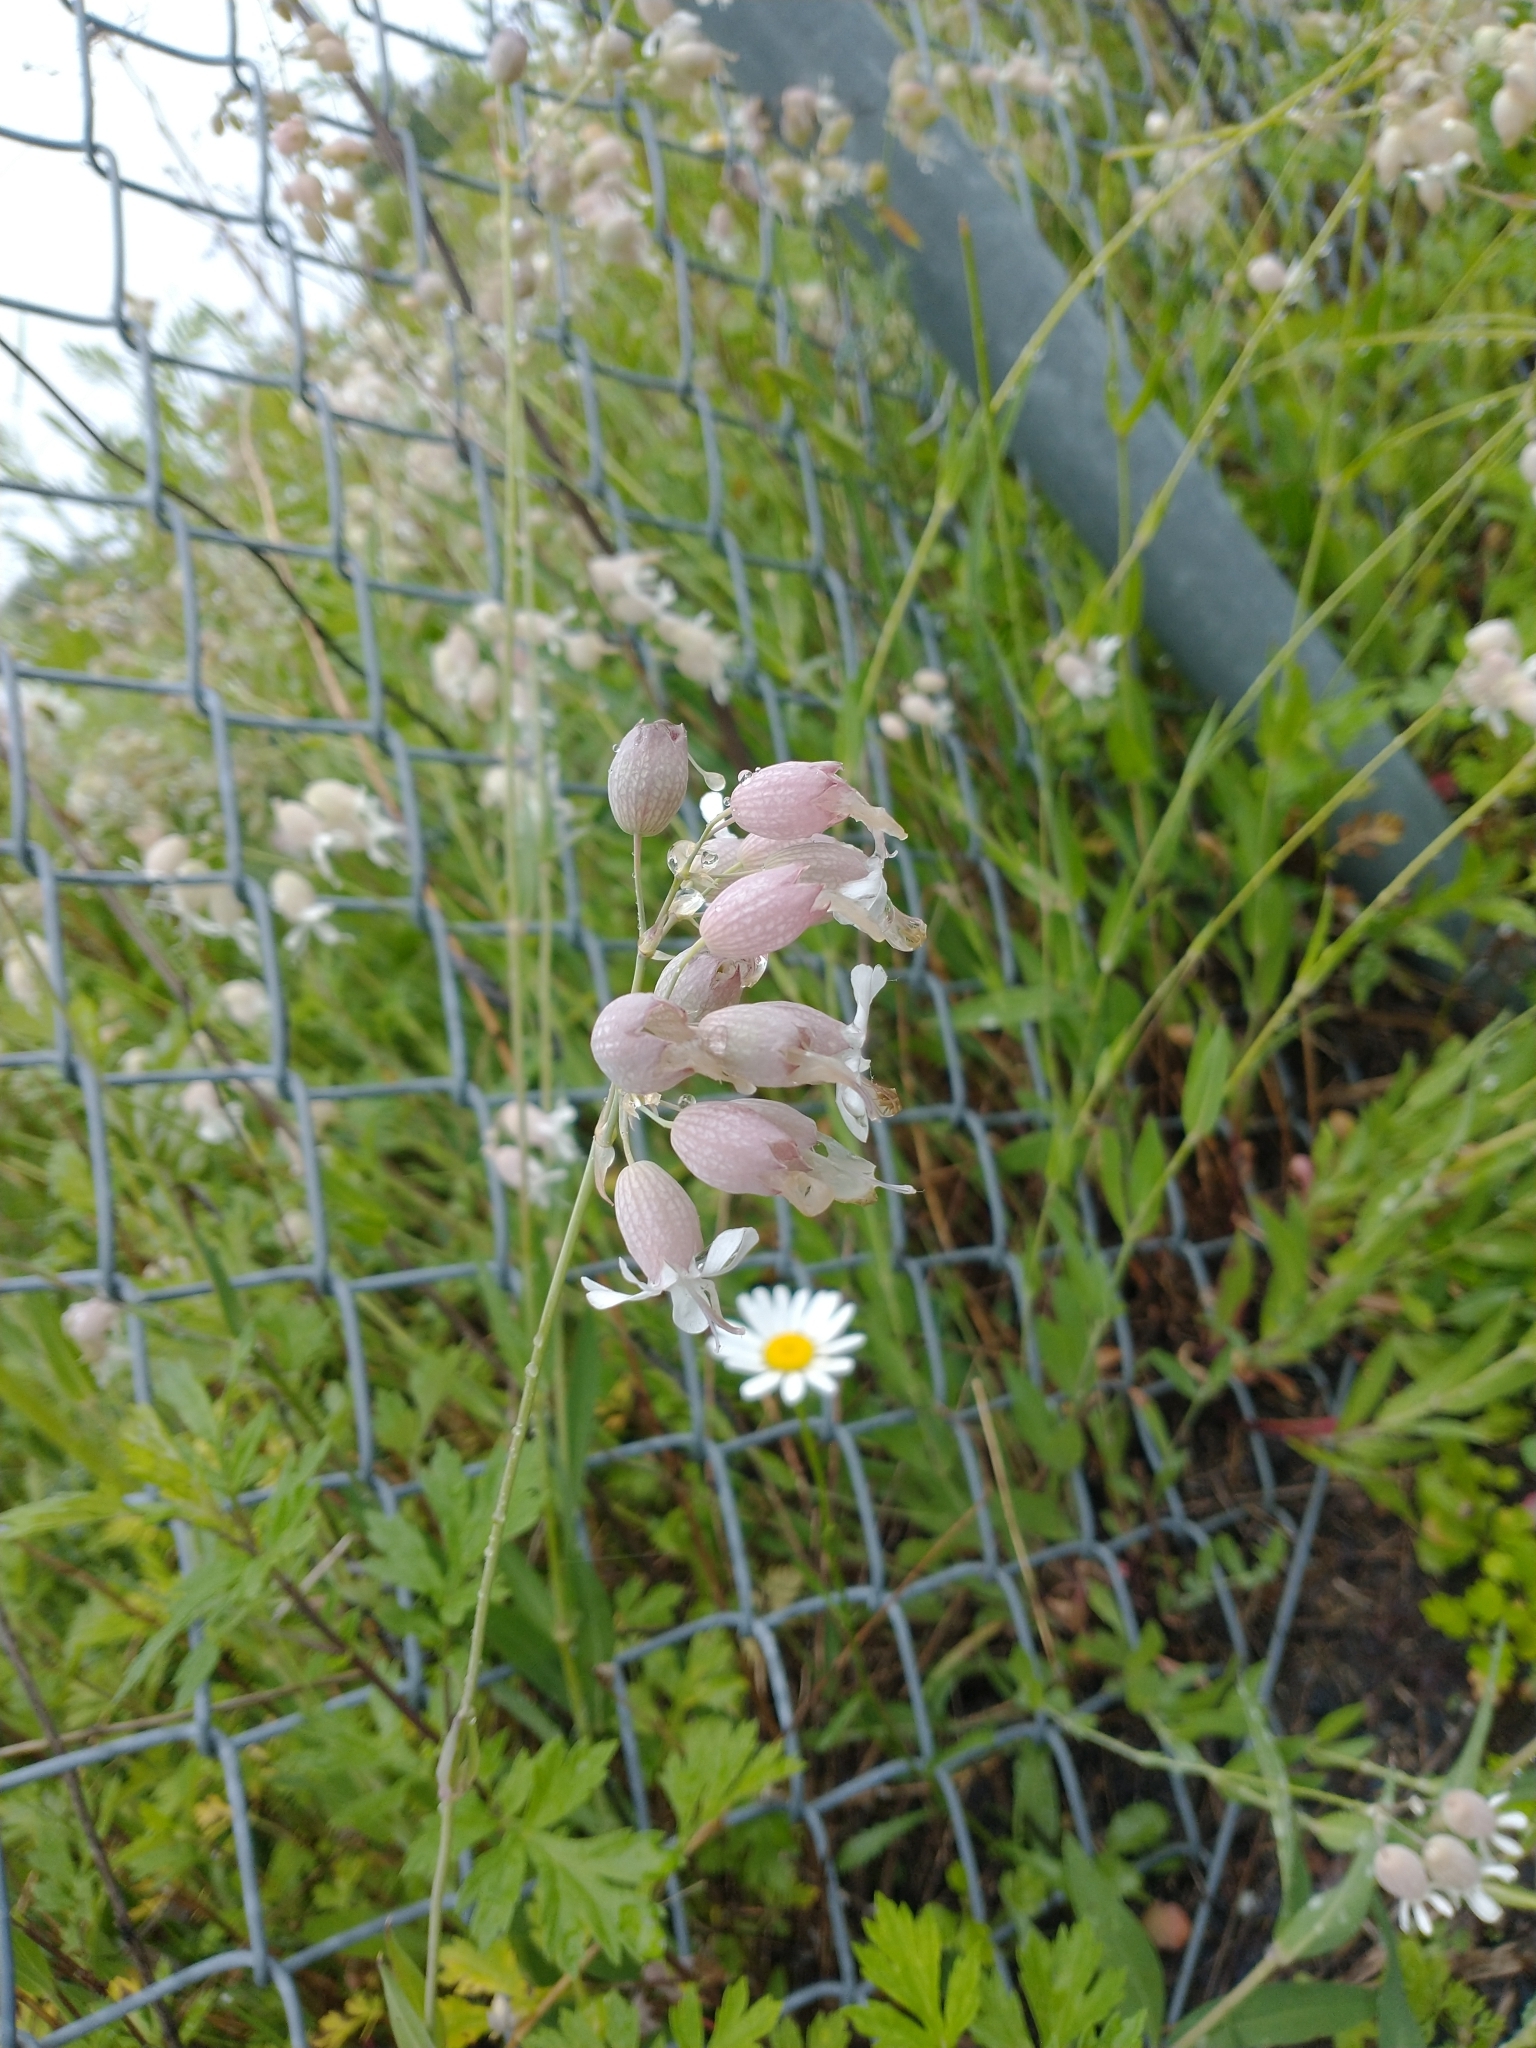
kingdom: Plantae
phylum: Tracheophyta
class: Magnoliopsida
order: Caryophyllales
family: Caryophyllaceae
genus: Silene
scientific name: Silene vulgaris
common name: Bladder campion
